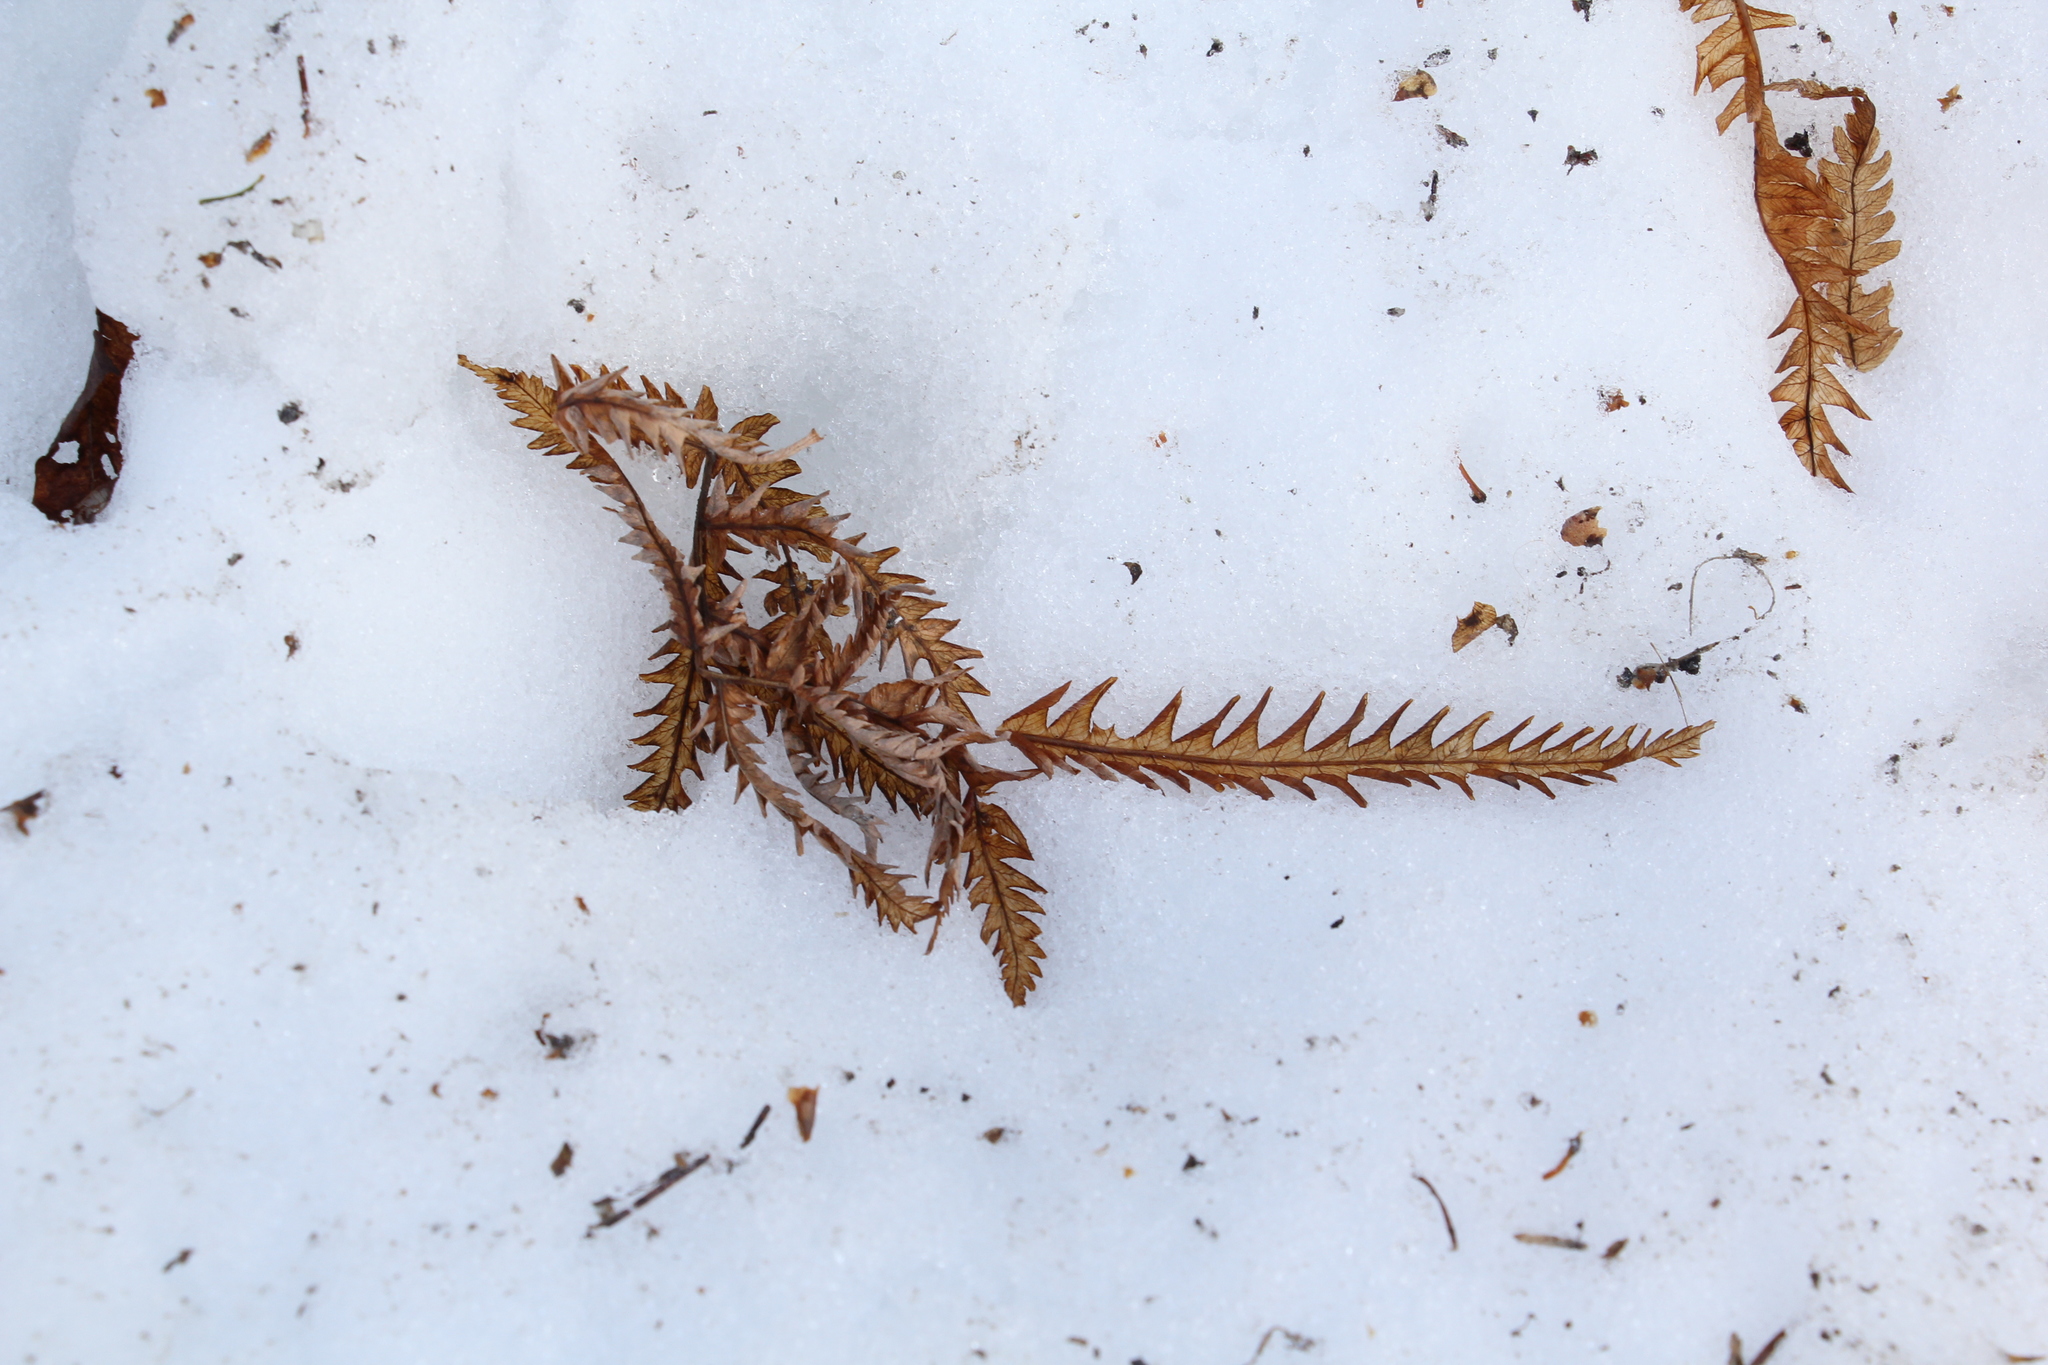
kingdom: Plantae
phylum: Tracheophyta
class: Polypodiopsida
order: Polypodiales
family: Onocleaceae
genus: Matteuccia
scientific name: Matteuccia struthiopteris
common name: Ostrich fern
